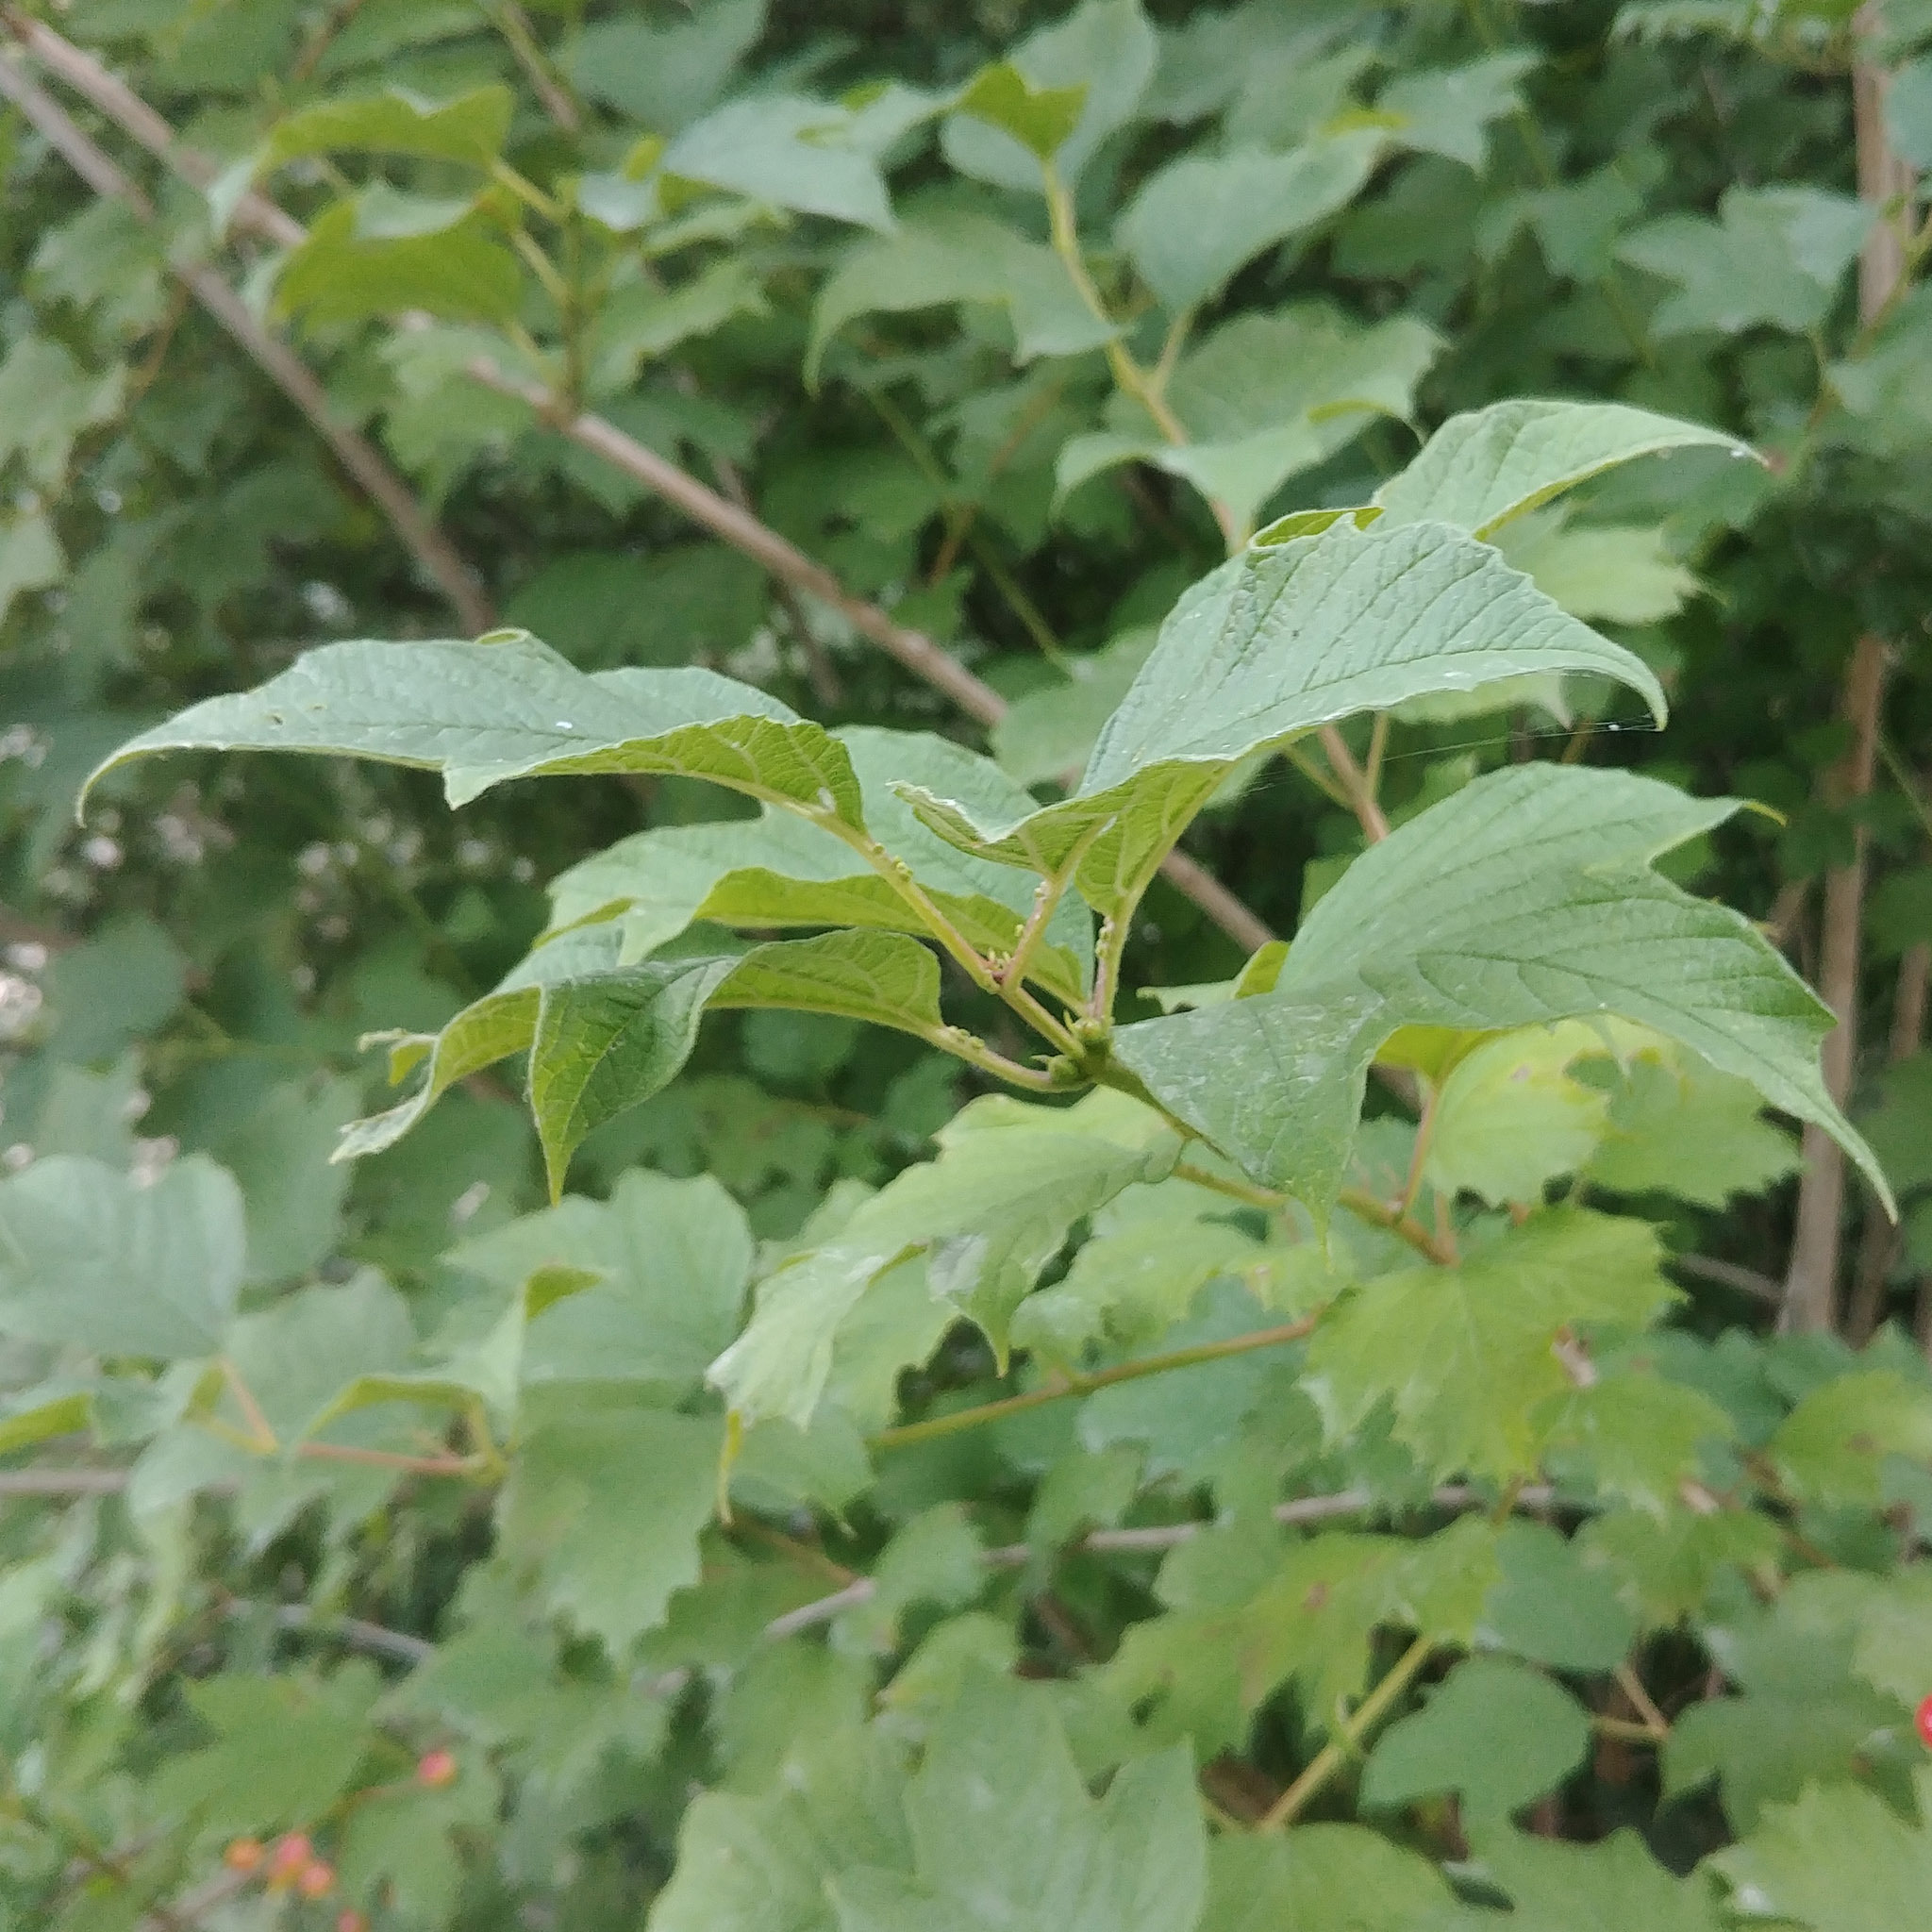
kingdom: Plantae
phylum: Tracheophyta
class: Magnoliopsida
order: Dipsacales
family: Viburnaceae
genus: Viburnum
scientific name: Viburnum opulus
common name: Guelder-rose
